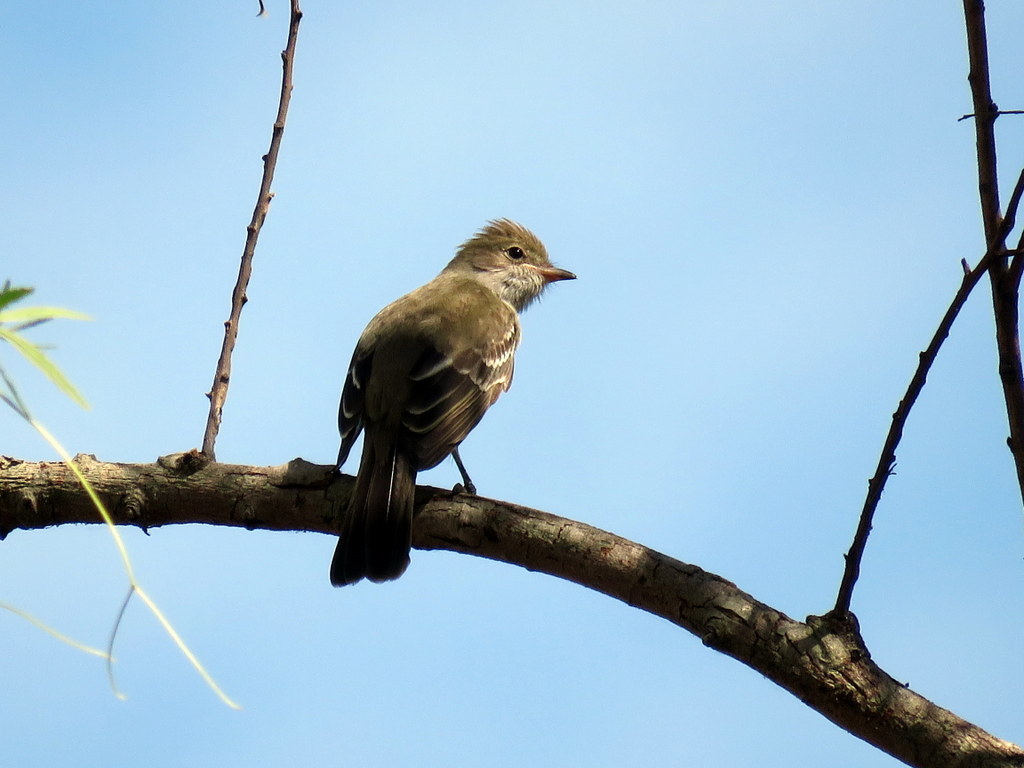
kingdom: Animalia
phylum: Chordata
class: Aves
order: Passeriformes
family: Tyrannidae
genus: Elaenia
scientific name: Elaenia spectabilis
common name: Large elaenia
